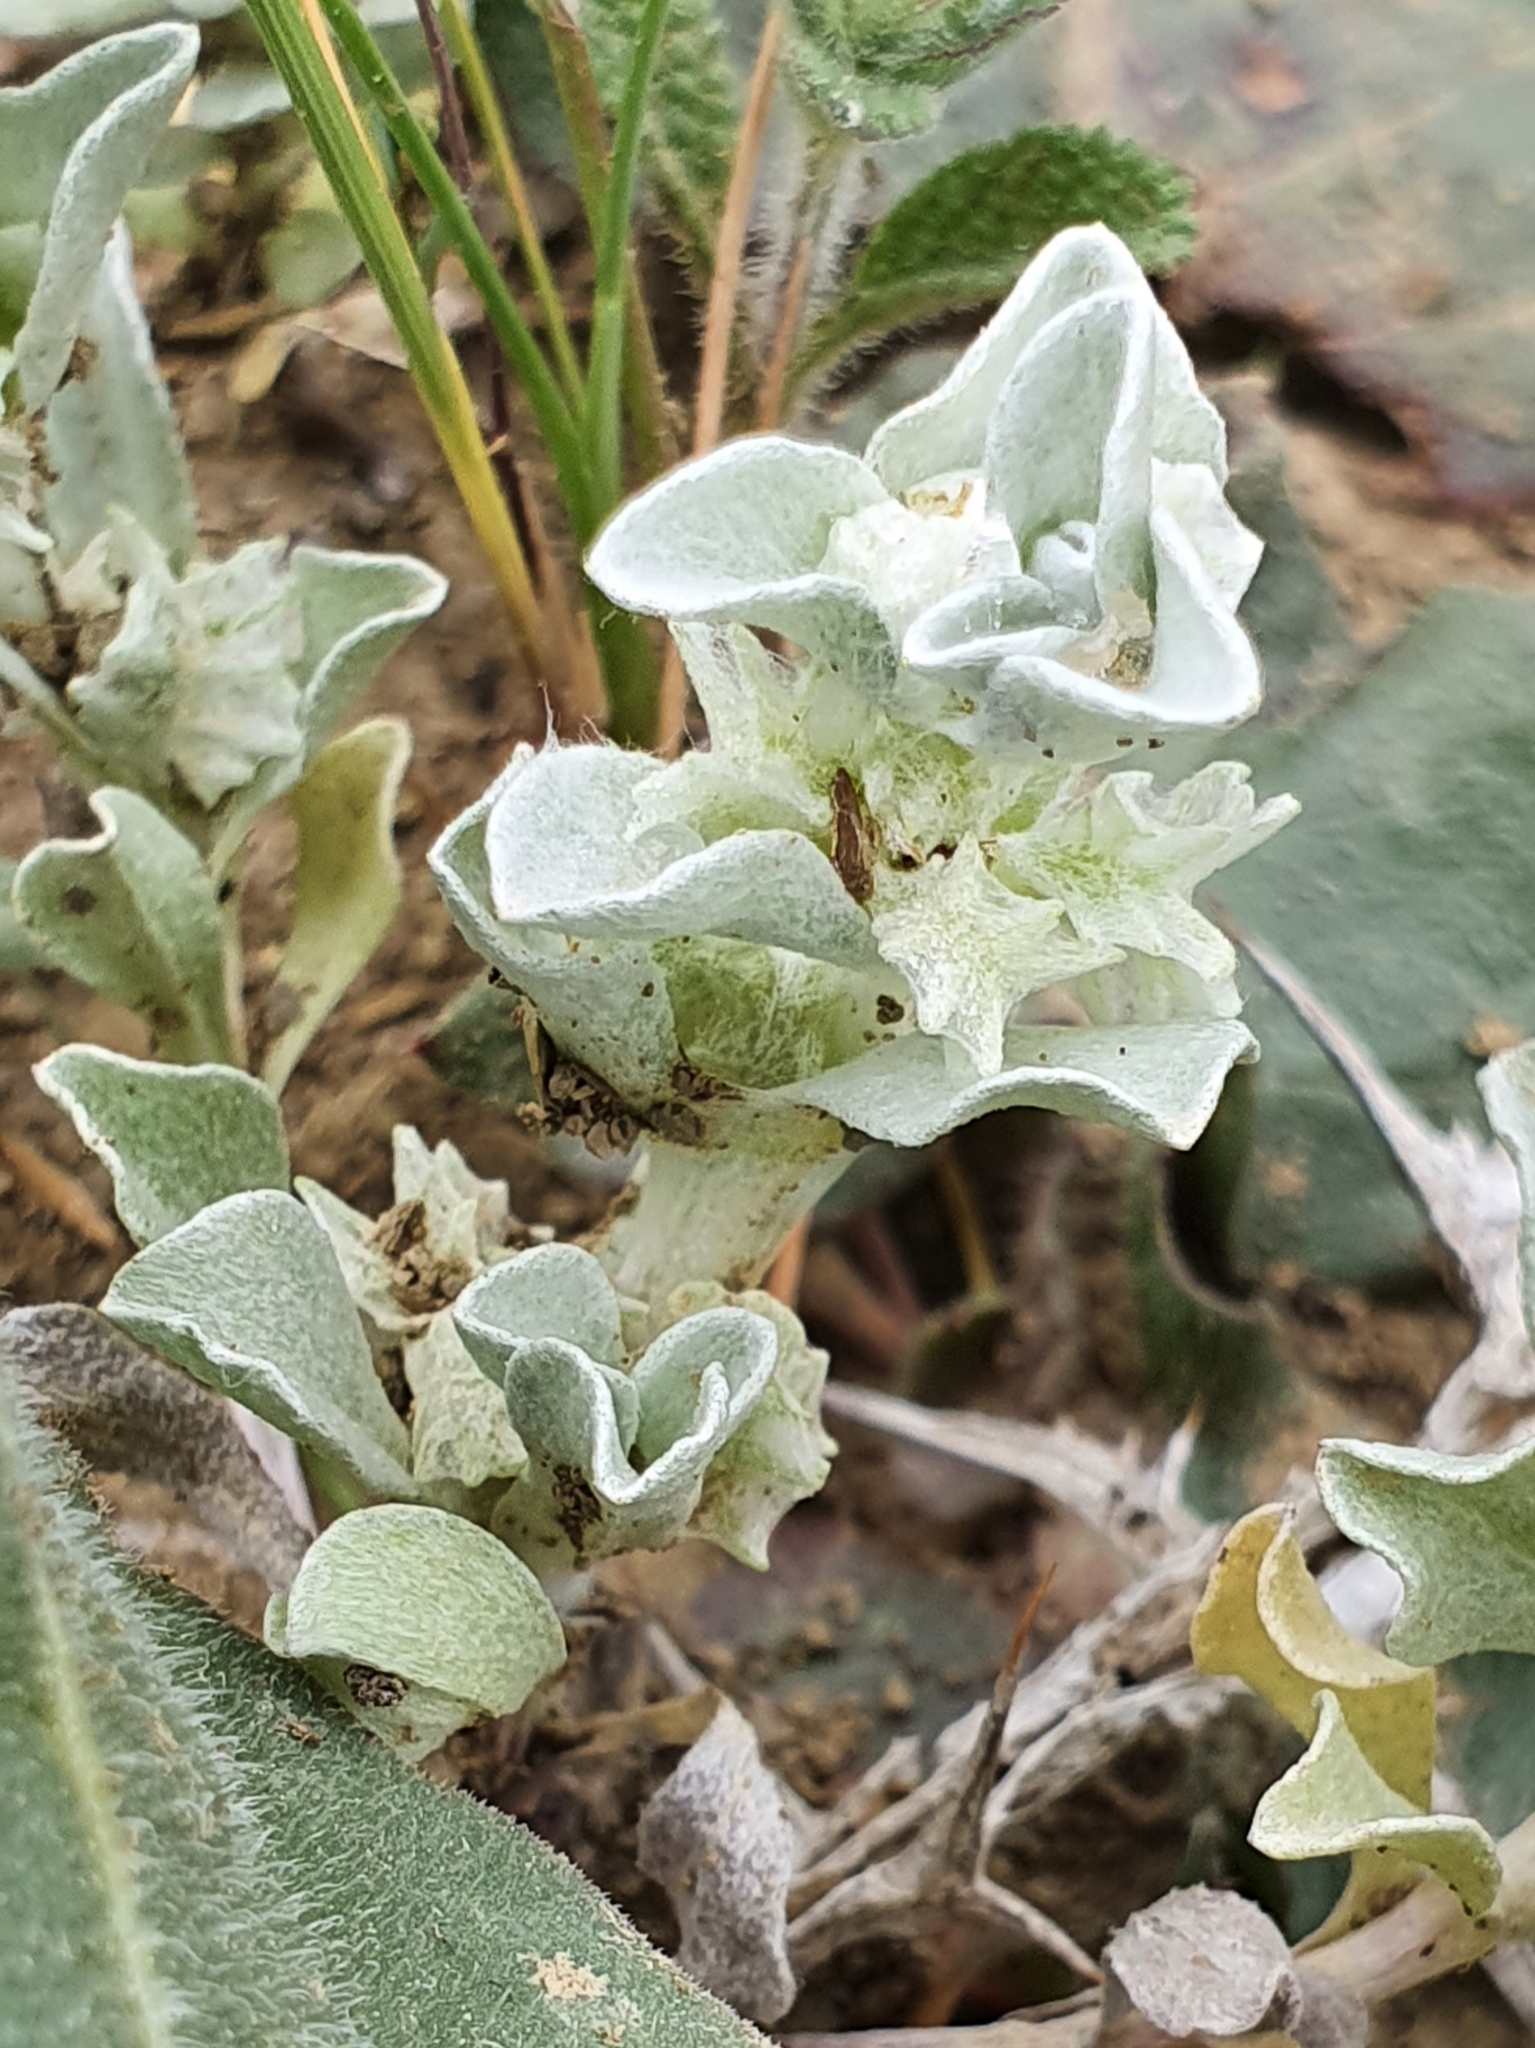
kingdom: Plantae
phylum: Tracheophyta
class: Magnoliopsida
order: Asterales
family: Asteraceae
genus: Micropus
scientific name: Micropus supinus
